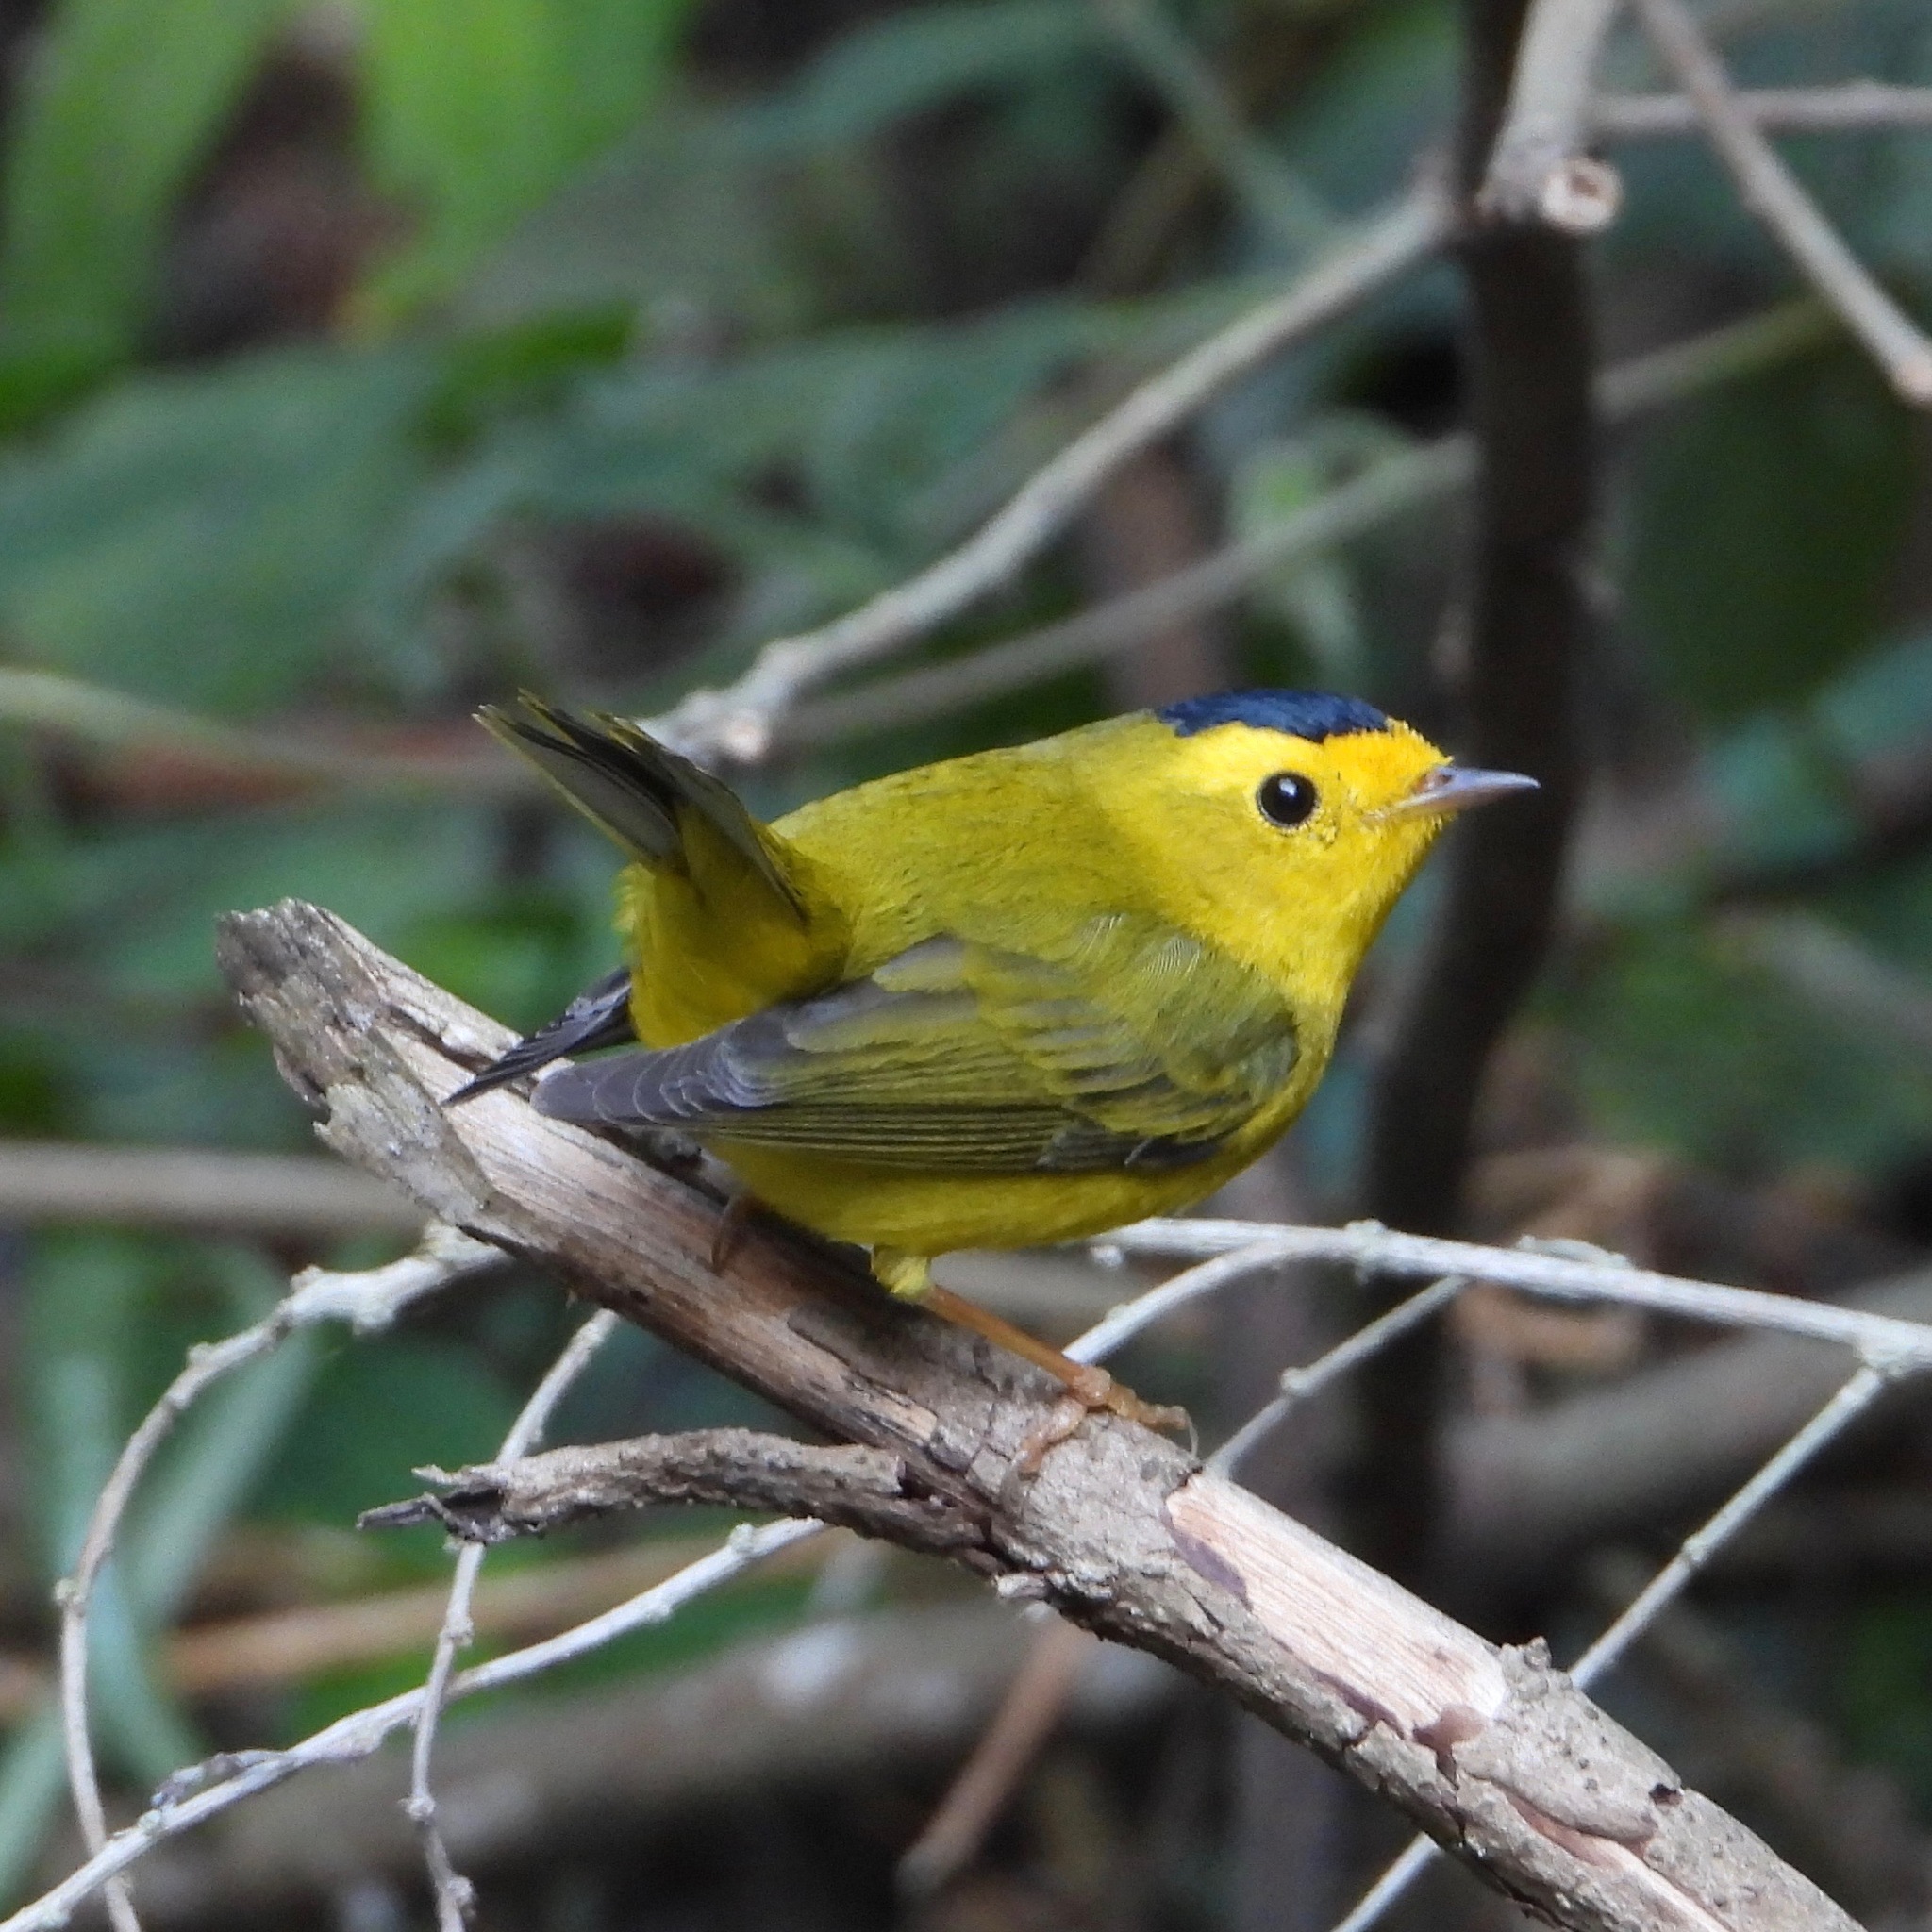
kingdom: Animalia
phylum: Chordata
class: Aves
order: Passeriformes
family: Parulidae
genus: Cardellina
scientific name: Cardellina pusilla
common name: Wilson's warbler
